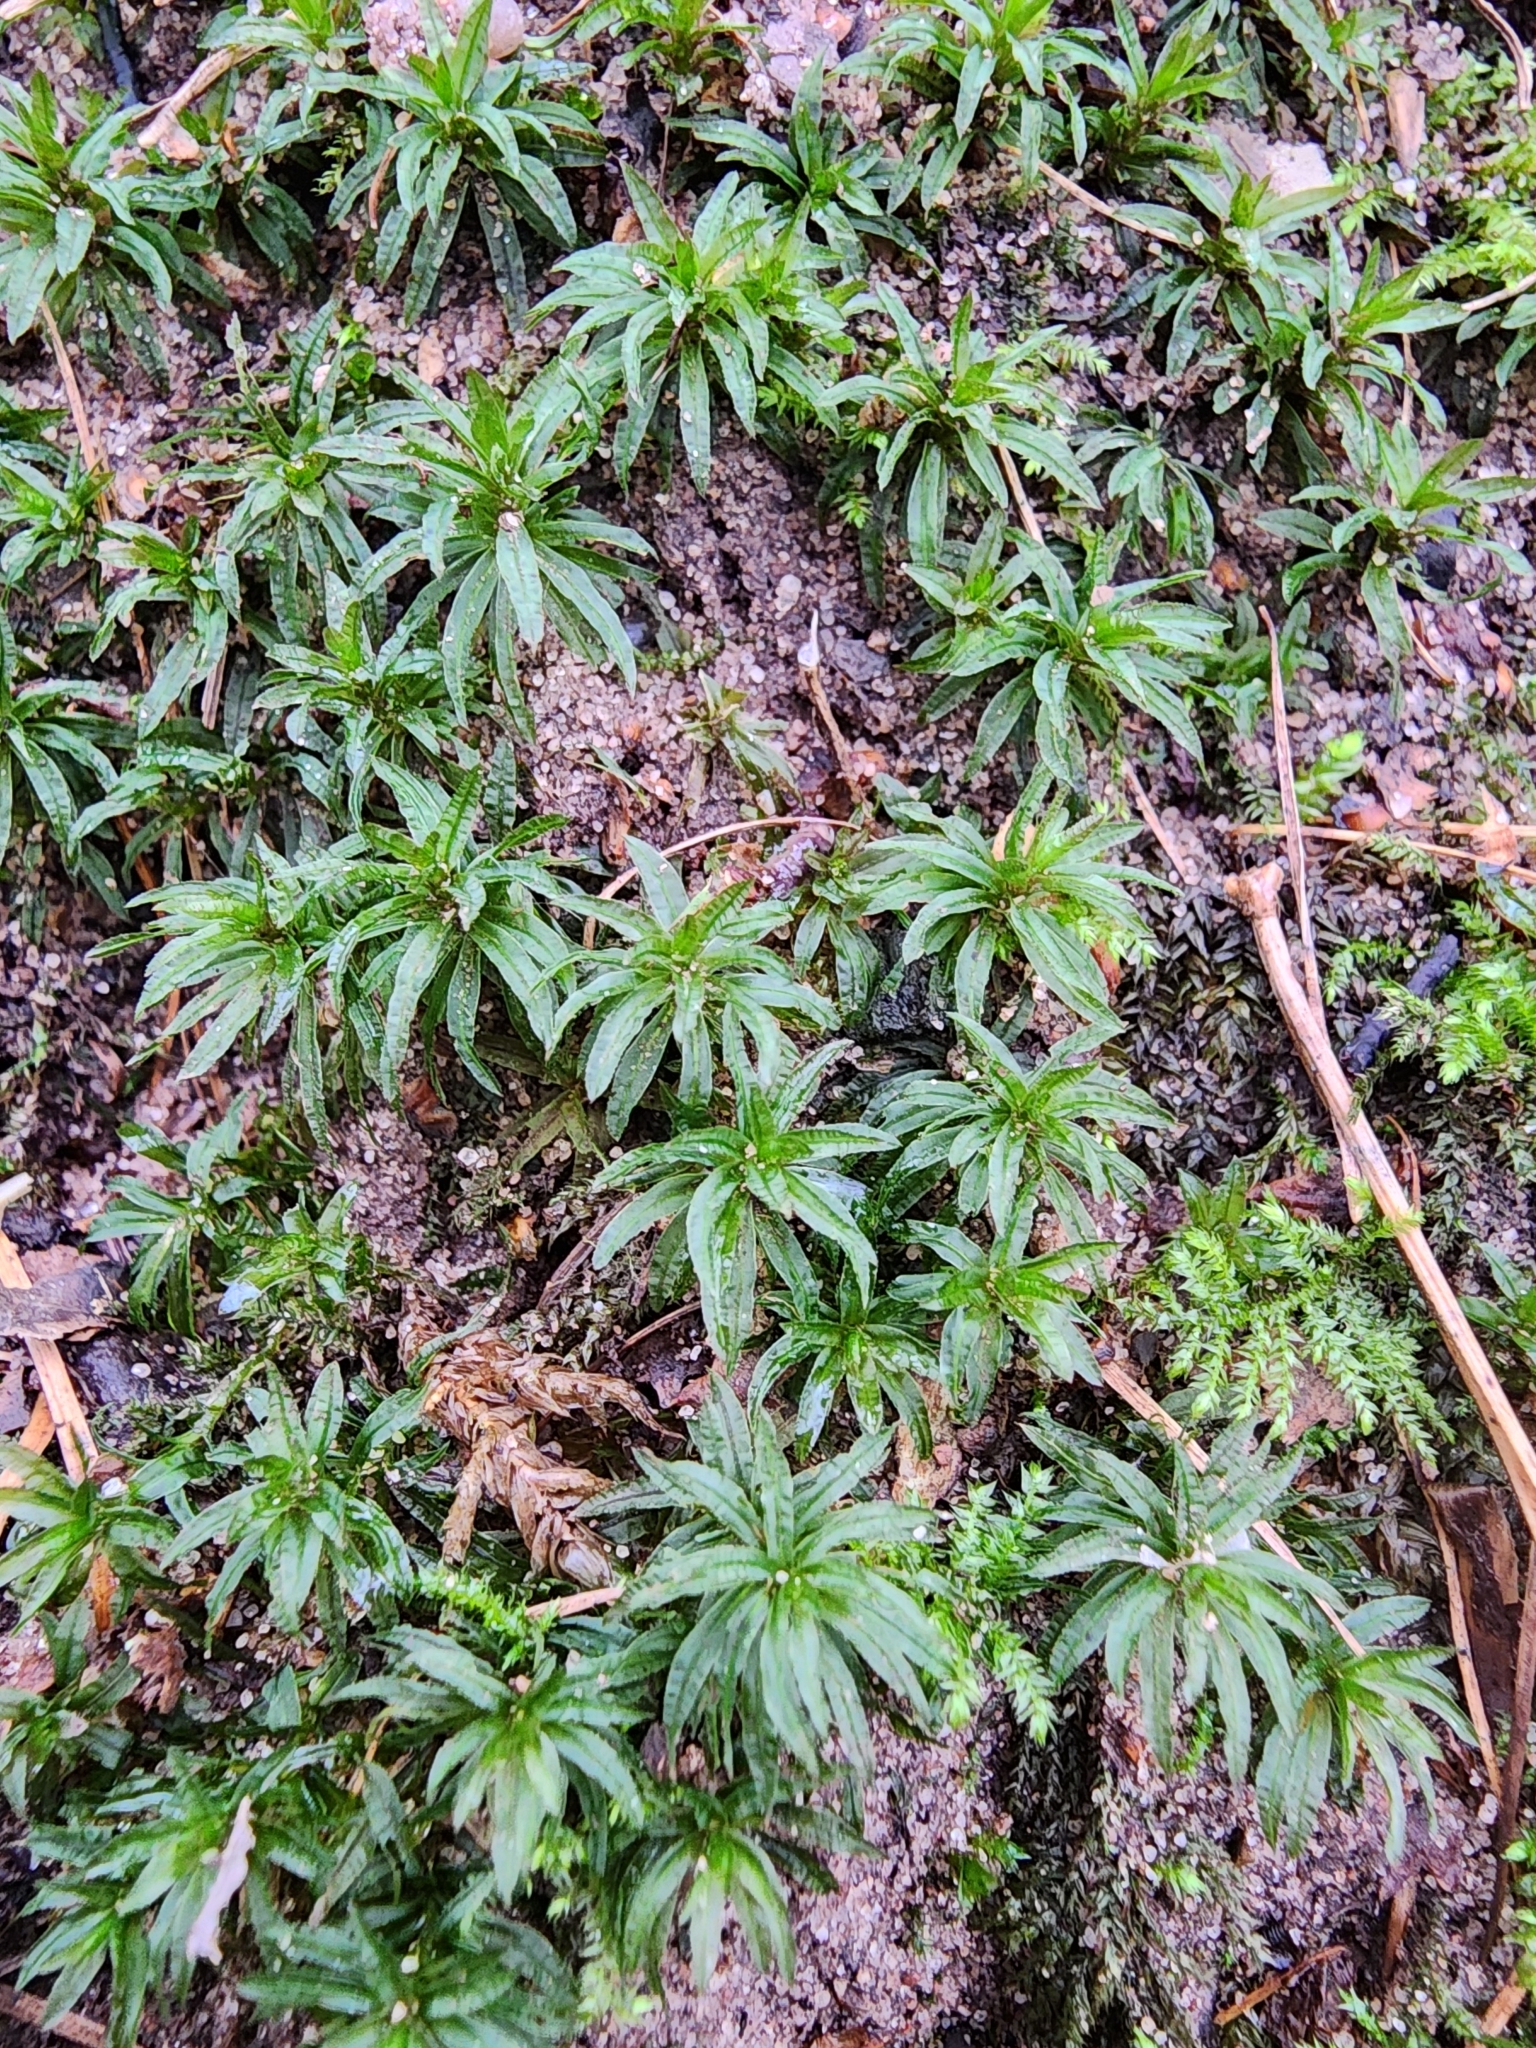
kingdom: Plantae
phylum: Bryophyta
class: Polytrichopsida
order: Polytrichales
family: Polytrichaceae
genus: Atrichum
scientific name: Atrichum undulatum
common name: Common smoothcap
